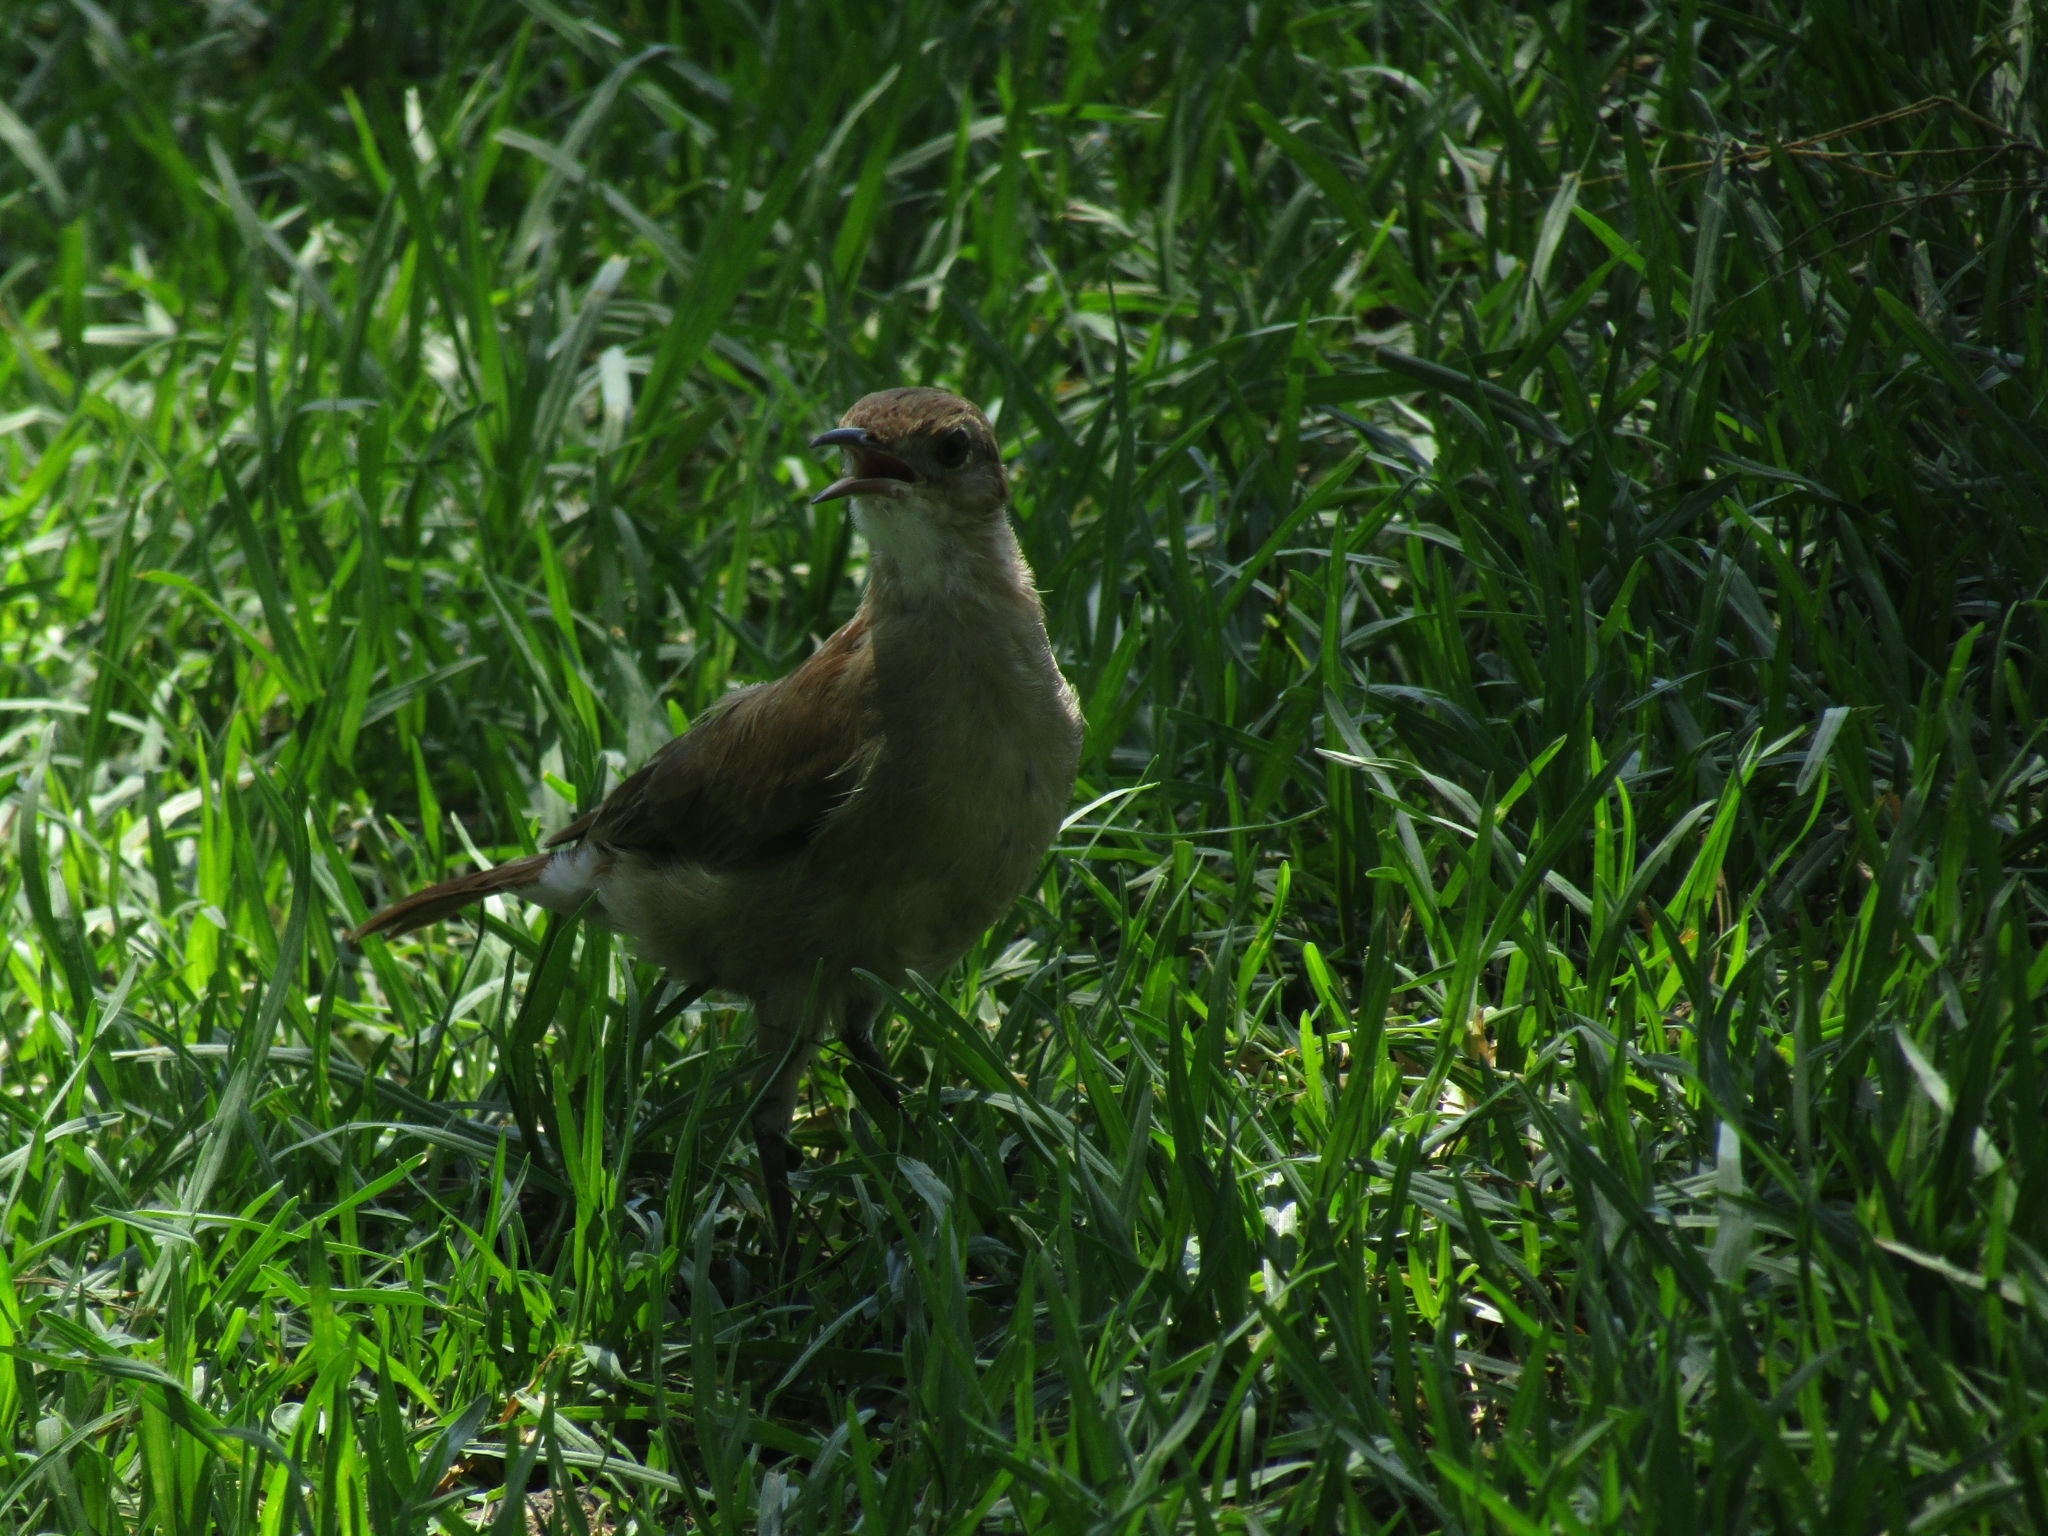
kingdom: Animalia
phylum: Chordata
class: Aves
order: Passeriformes
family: Furnariidae
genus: Furnarius
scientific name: Furnarius rufus
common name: Rufous hornero
